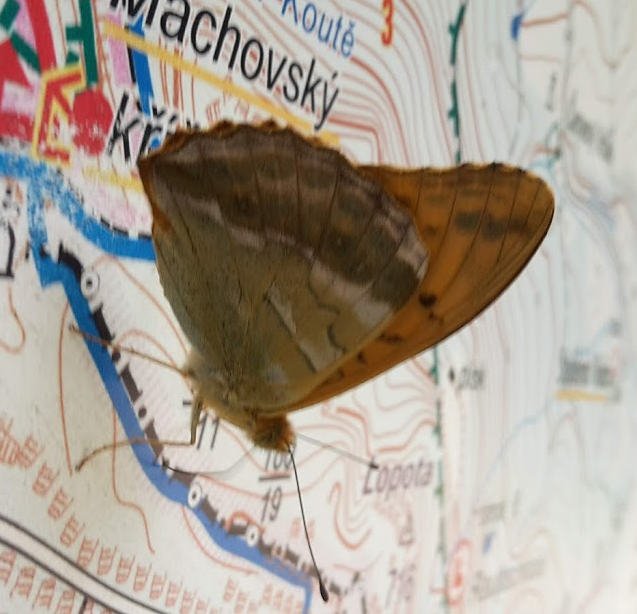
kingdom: Animalia
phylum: Arthropoda
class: Insecta
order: Lepidoptera
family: Nymphalidae
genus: Argynnis
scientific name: Argynnis paphia
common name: Silver-washed fritillary
